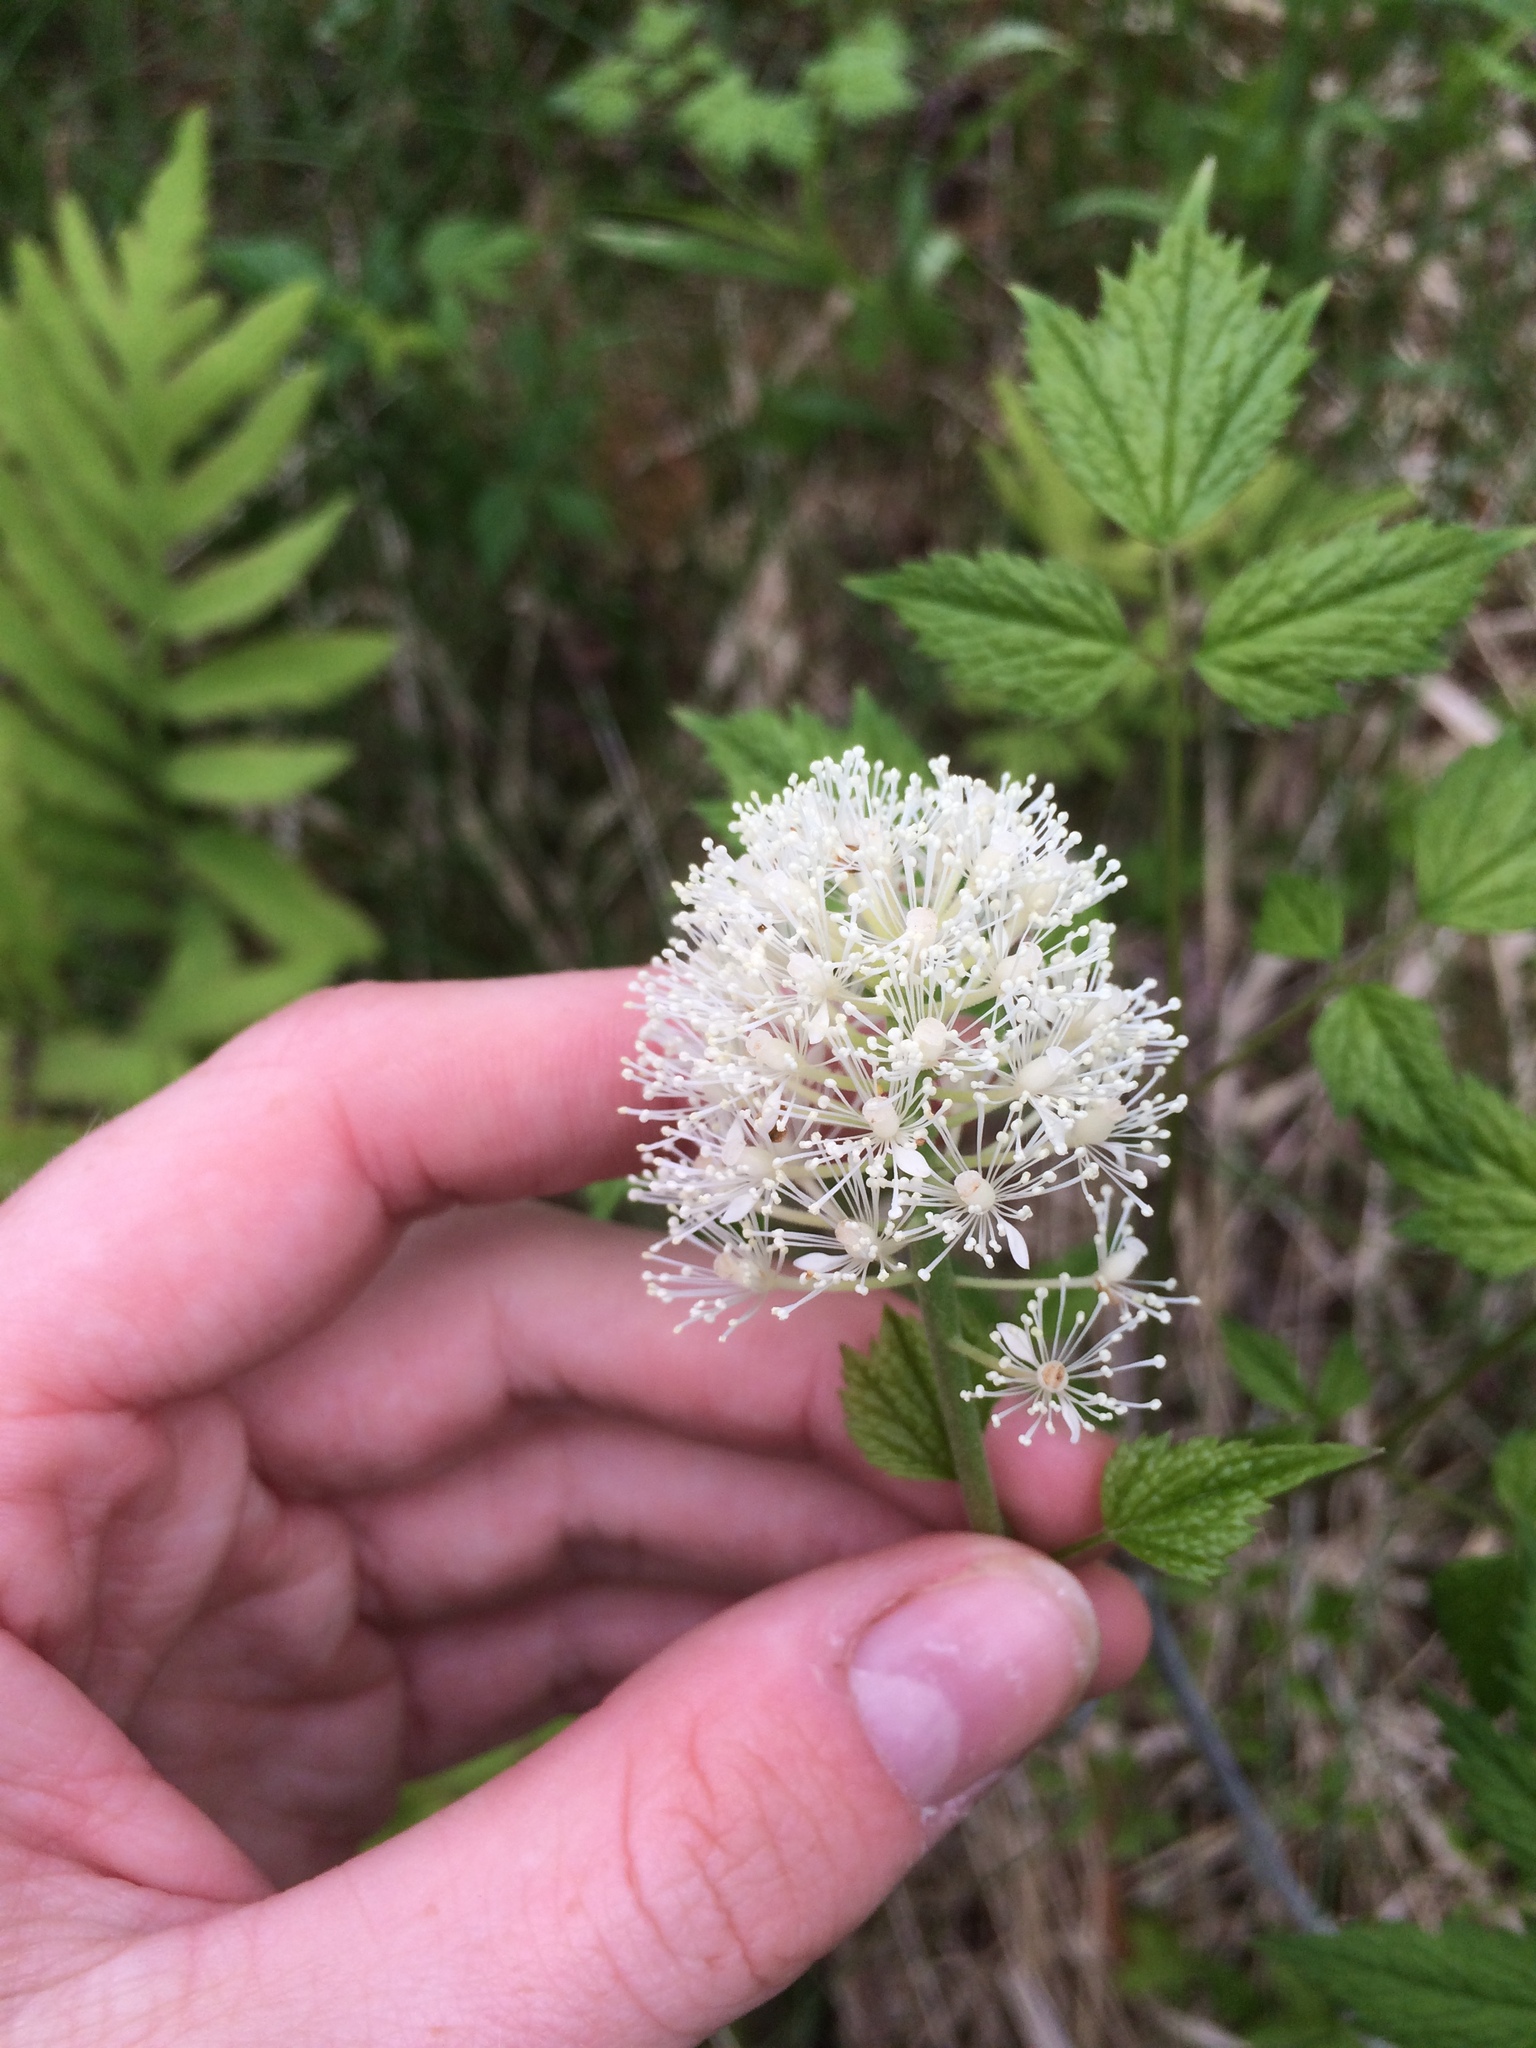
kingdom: Plantae
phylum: Tracheophyta
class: Magnoliopsida
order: Ranunculales
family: Ranunculaceae
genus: Actaea
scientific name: Actaea rubra
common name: Red baneberry
